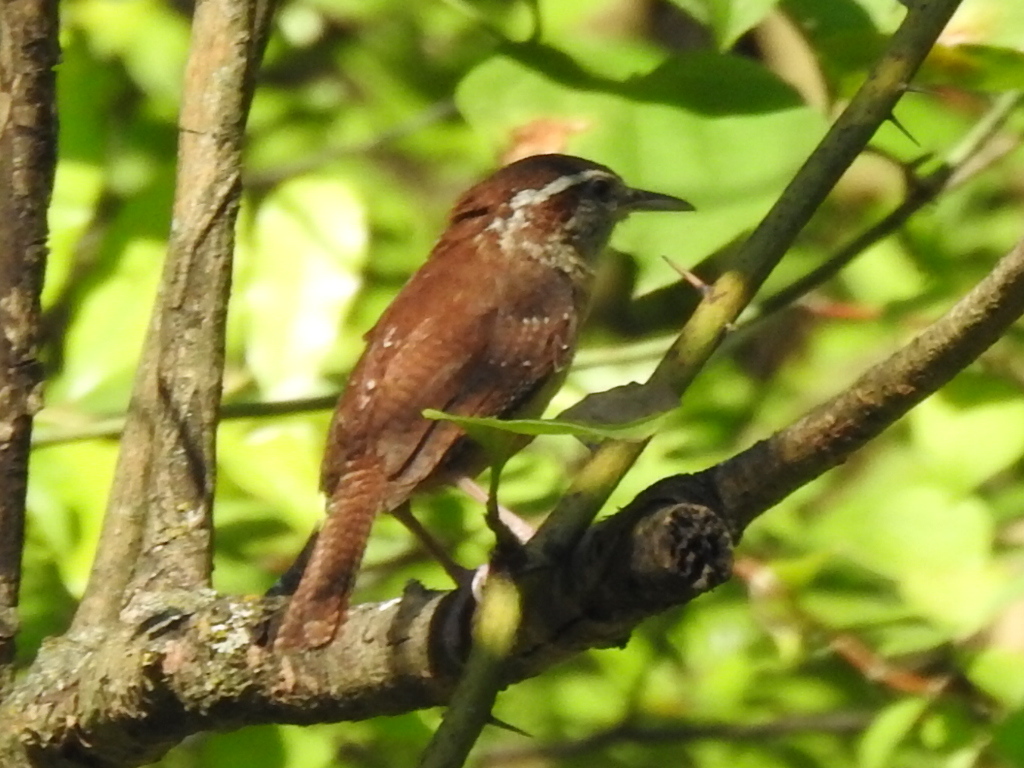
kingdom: Animalia
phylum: Chordata
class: Aves
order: Passeriformes
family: Troglodytidae
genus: Thryothorus
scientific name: Thryothorus ludovicianus
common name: Carolina wren
